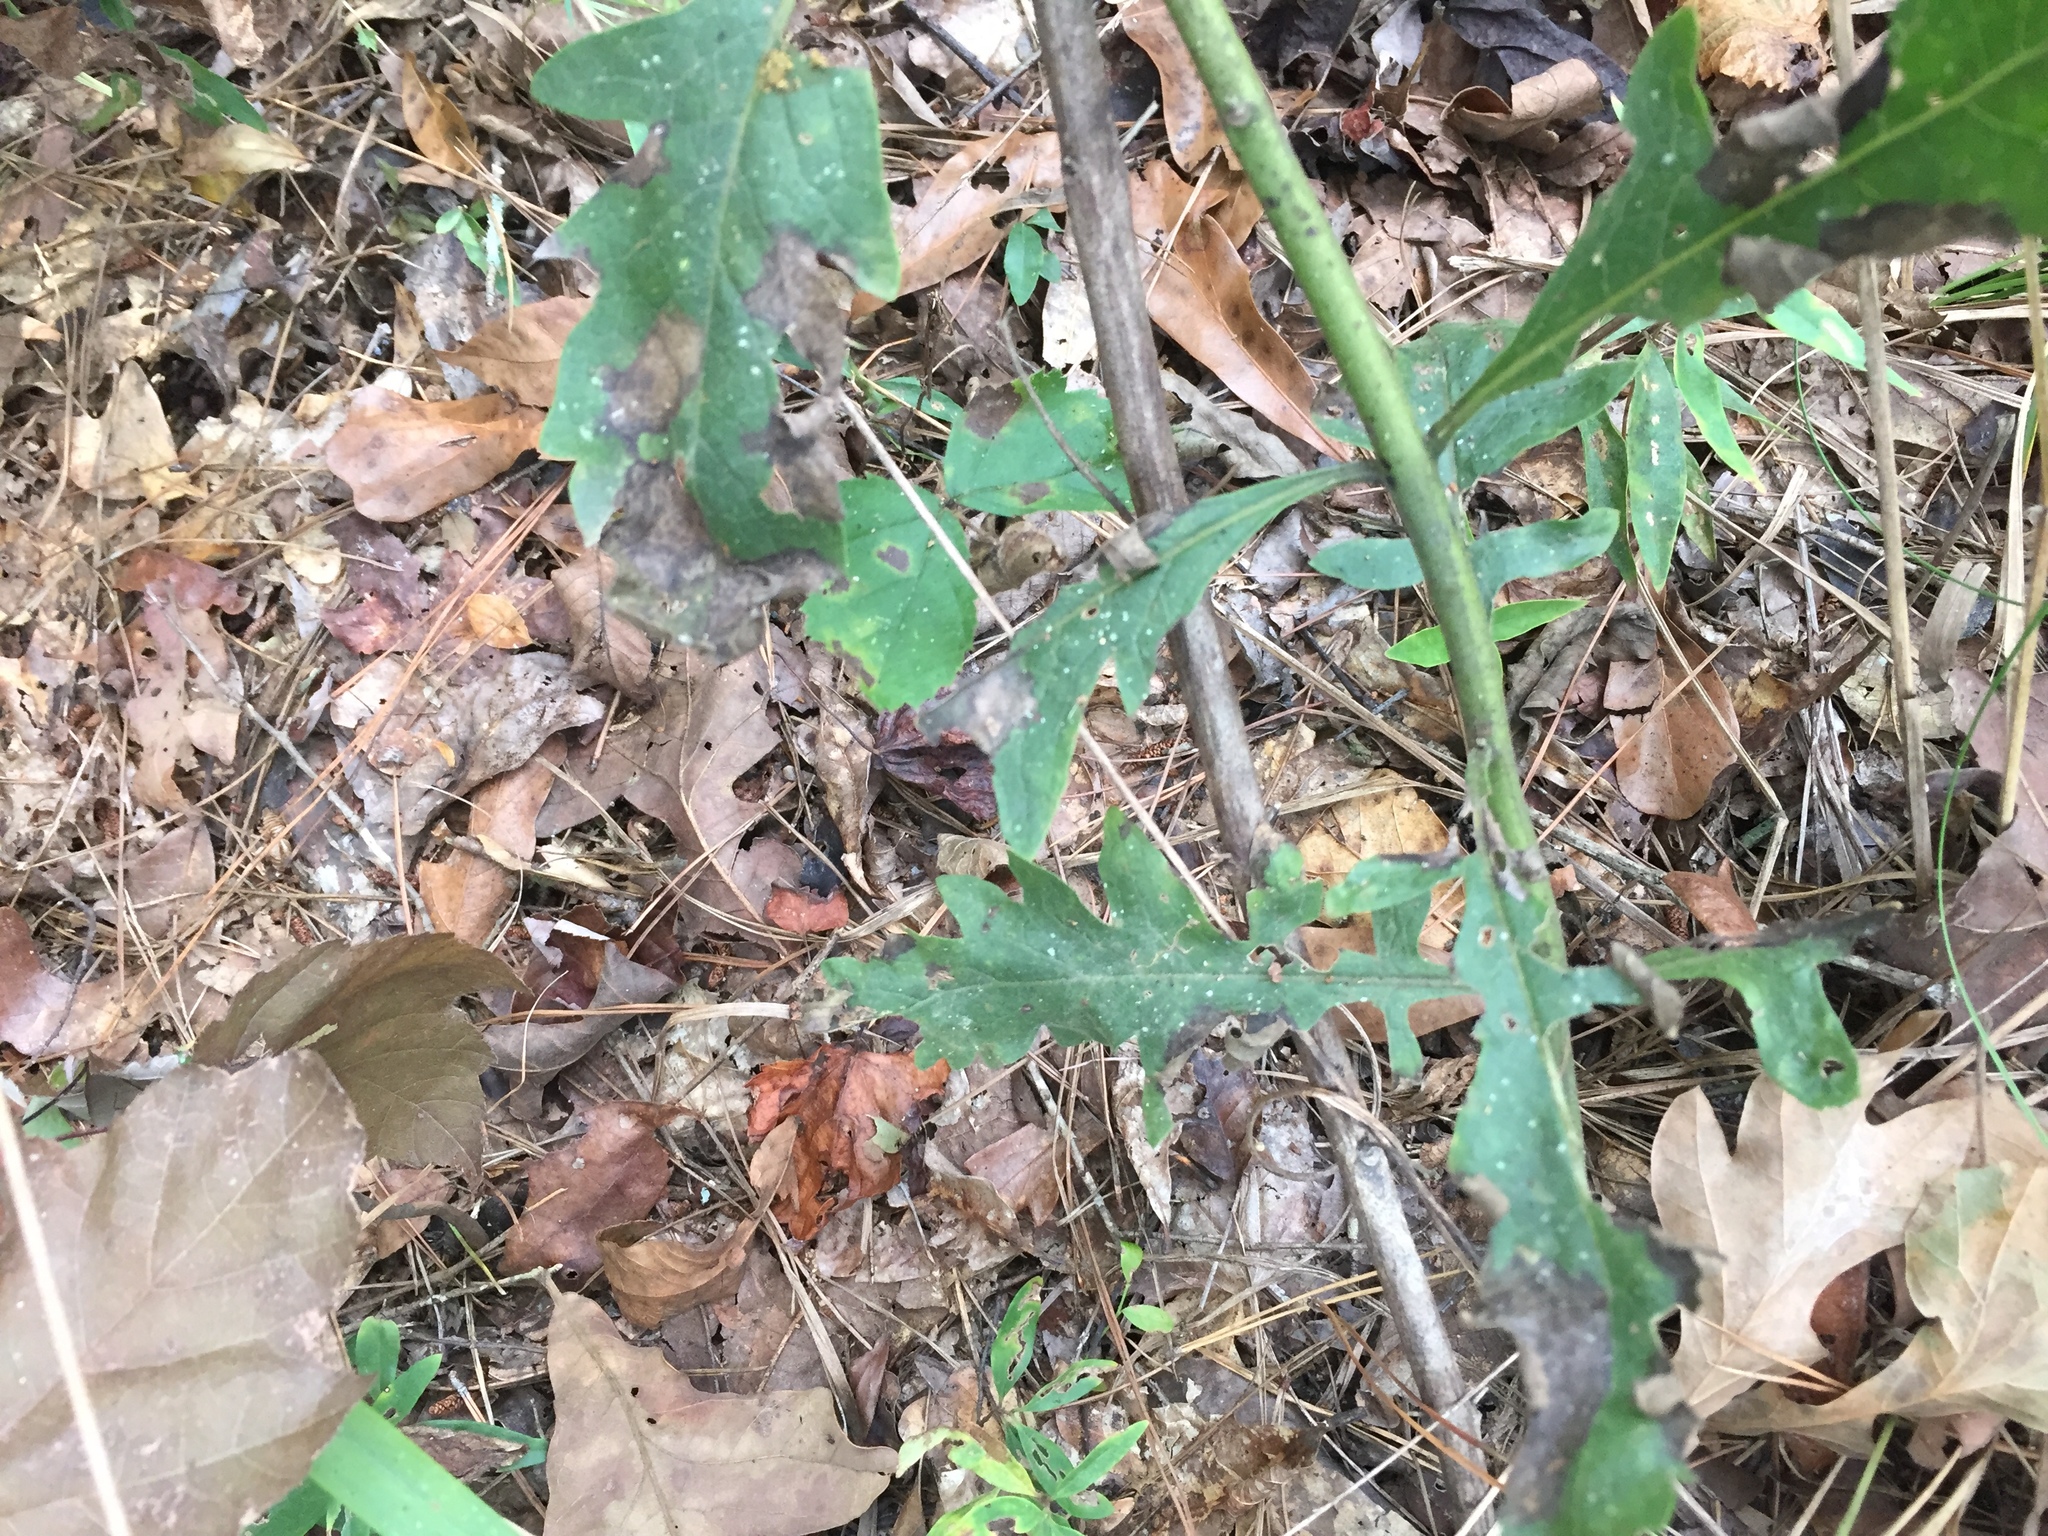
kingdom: Plantae
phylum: Tracheophyta
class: Magnoliopsida
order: Lamiales
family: Orobanchaceae
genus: Aureolaria
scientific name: Aureolaria grandiflora
